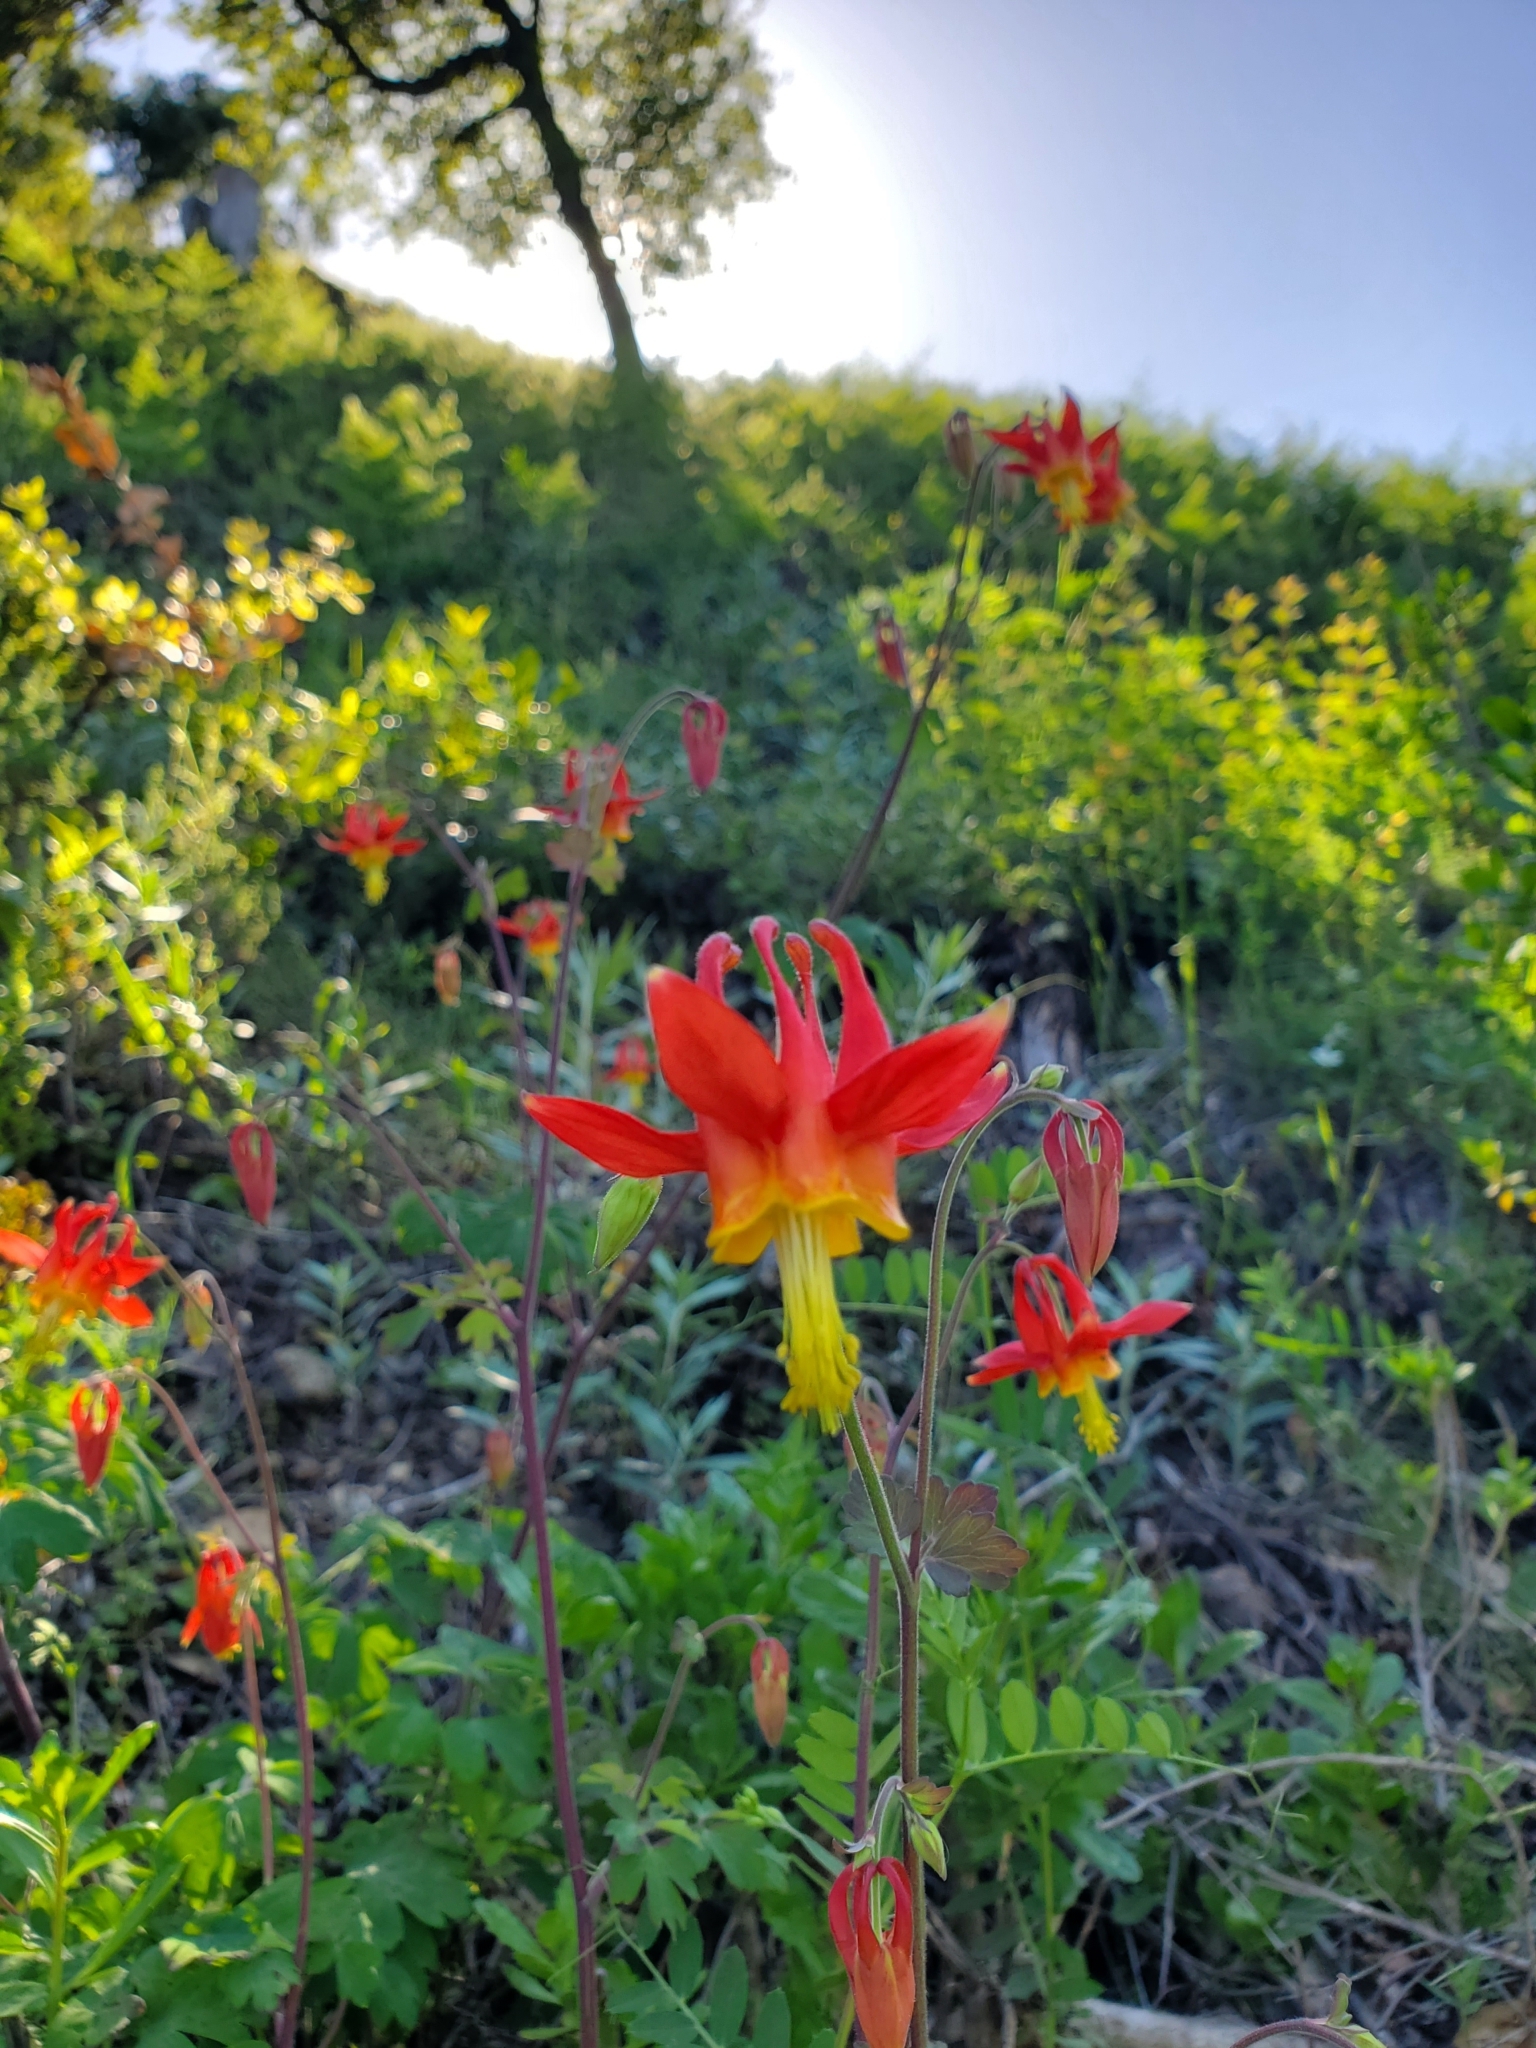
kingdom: Plantae
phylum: Tracheophyta
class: Magnoliopsida
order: Ranunculales
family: Ranunculaceae
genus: Aquilegia
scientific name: Aquilegia formosa
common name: Sitka columbine
